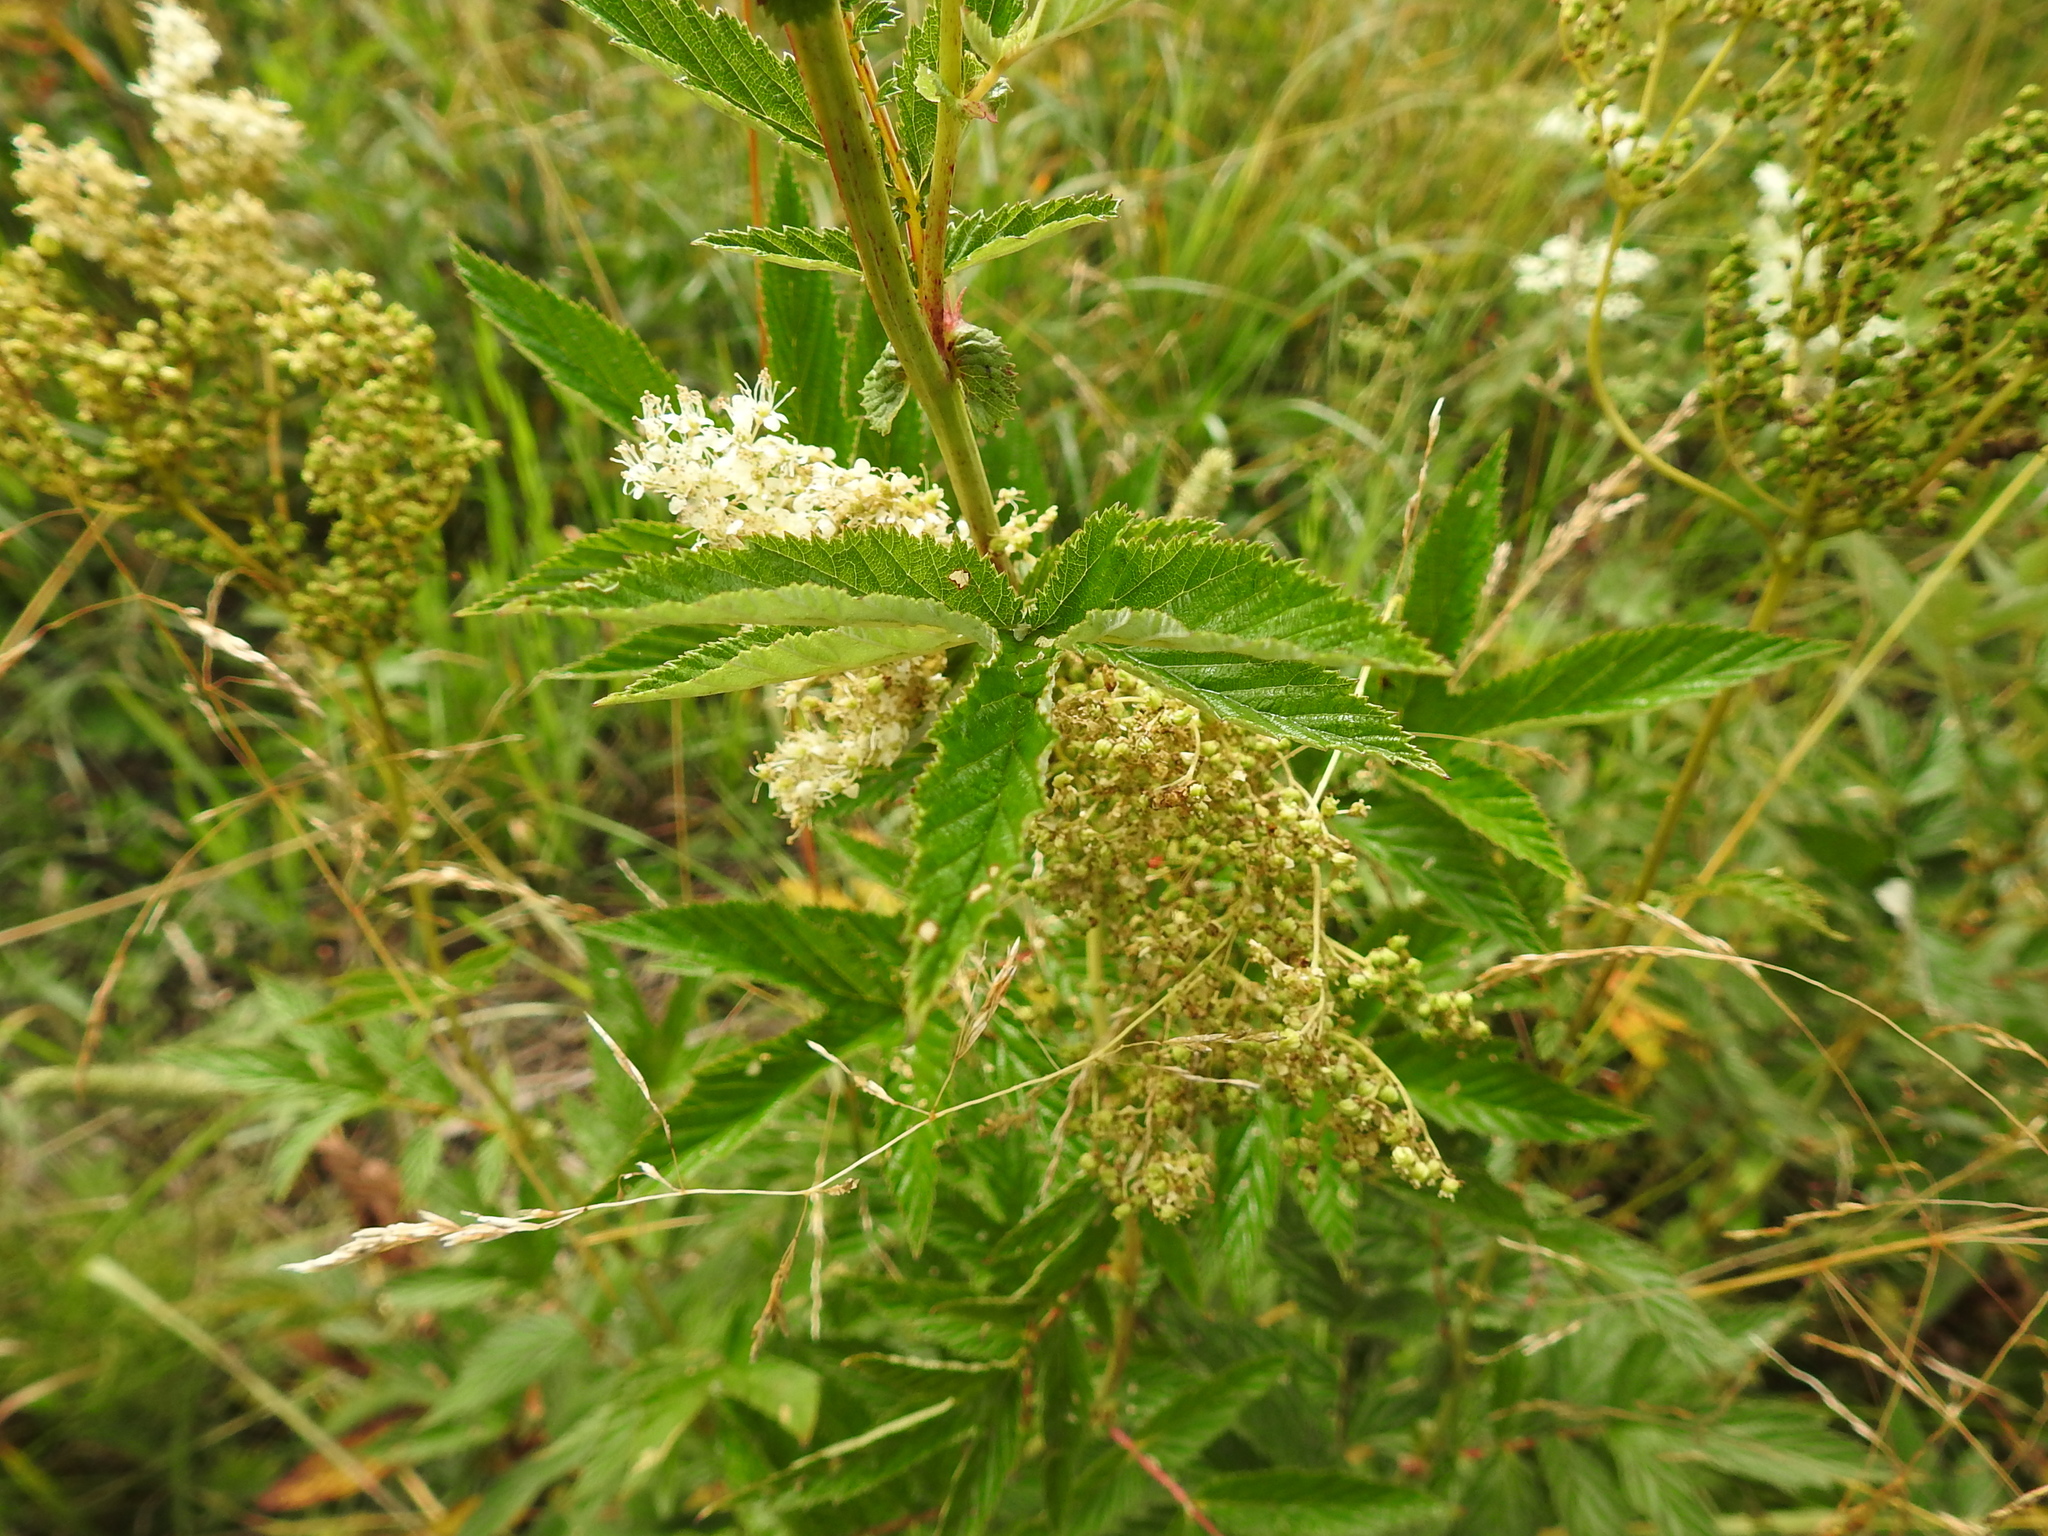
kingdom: Plantae
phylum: Tracheophyta
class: Magnoliopsida
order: Rosales
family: Rosaceae
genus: Filipendula
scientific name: Filipendula ulmaria
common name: Meadowsweet
